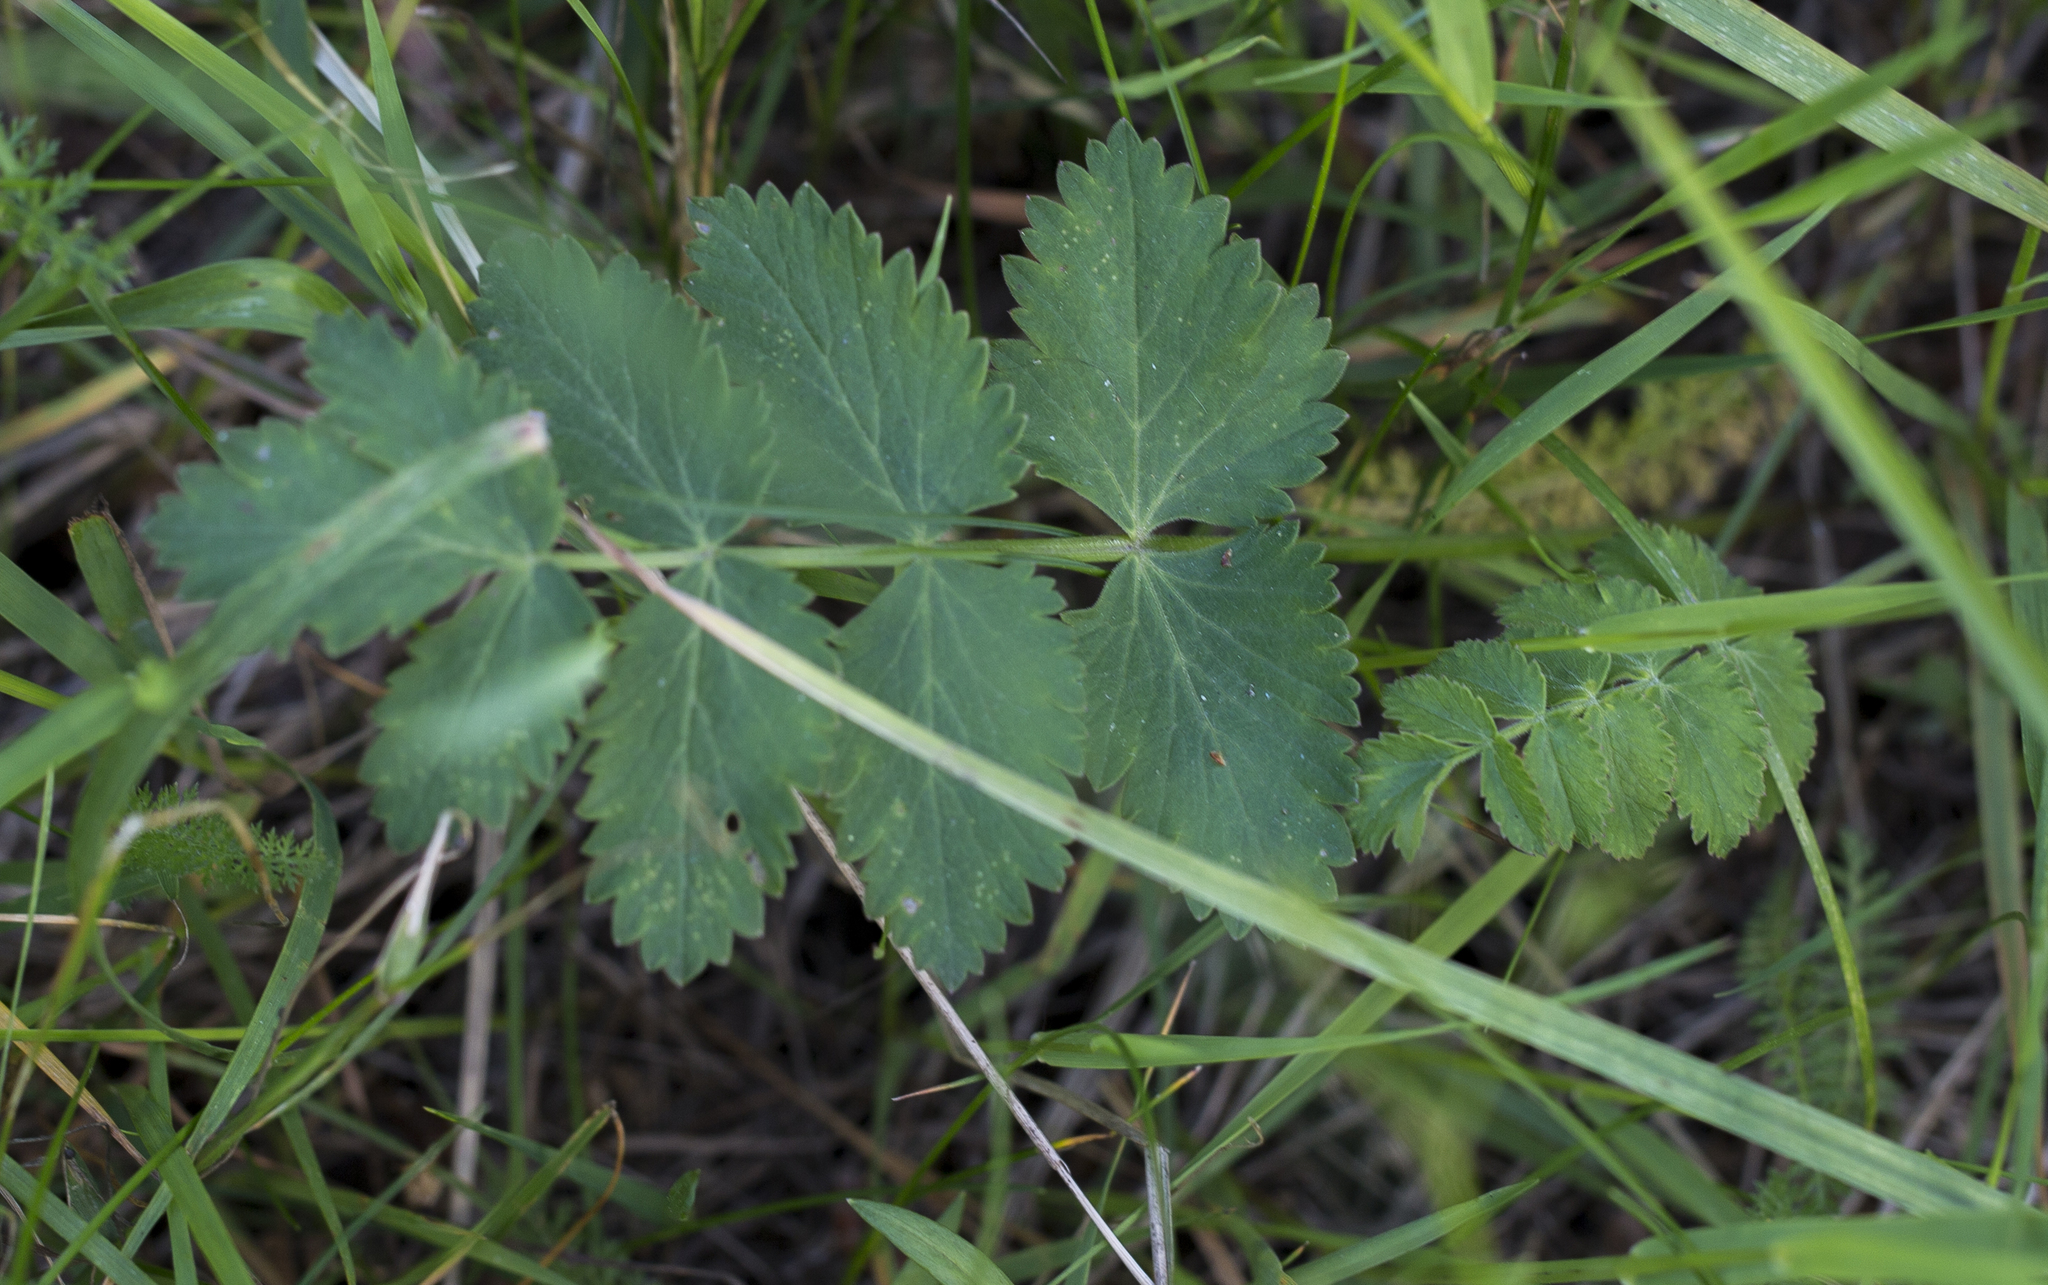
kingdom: Plantae
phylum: Tracheophyta
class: Magnoliopsida
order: Apiales
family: Apiaceae
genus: Pimpinella
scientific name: Pimpinella saxifraga
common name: Burnet-saxifrage
